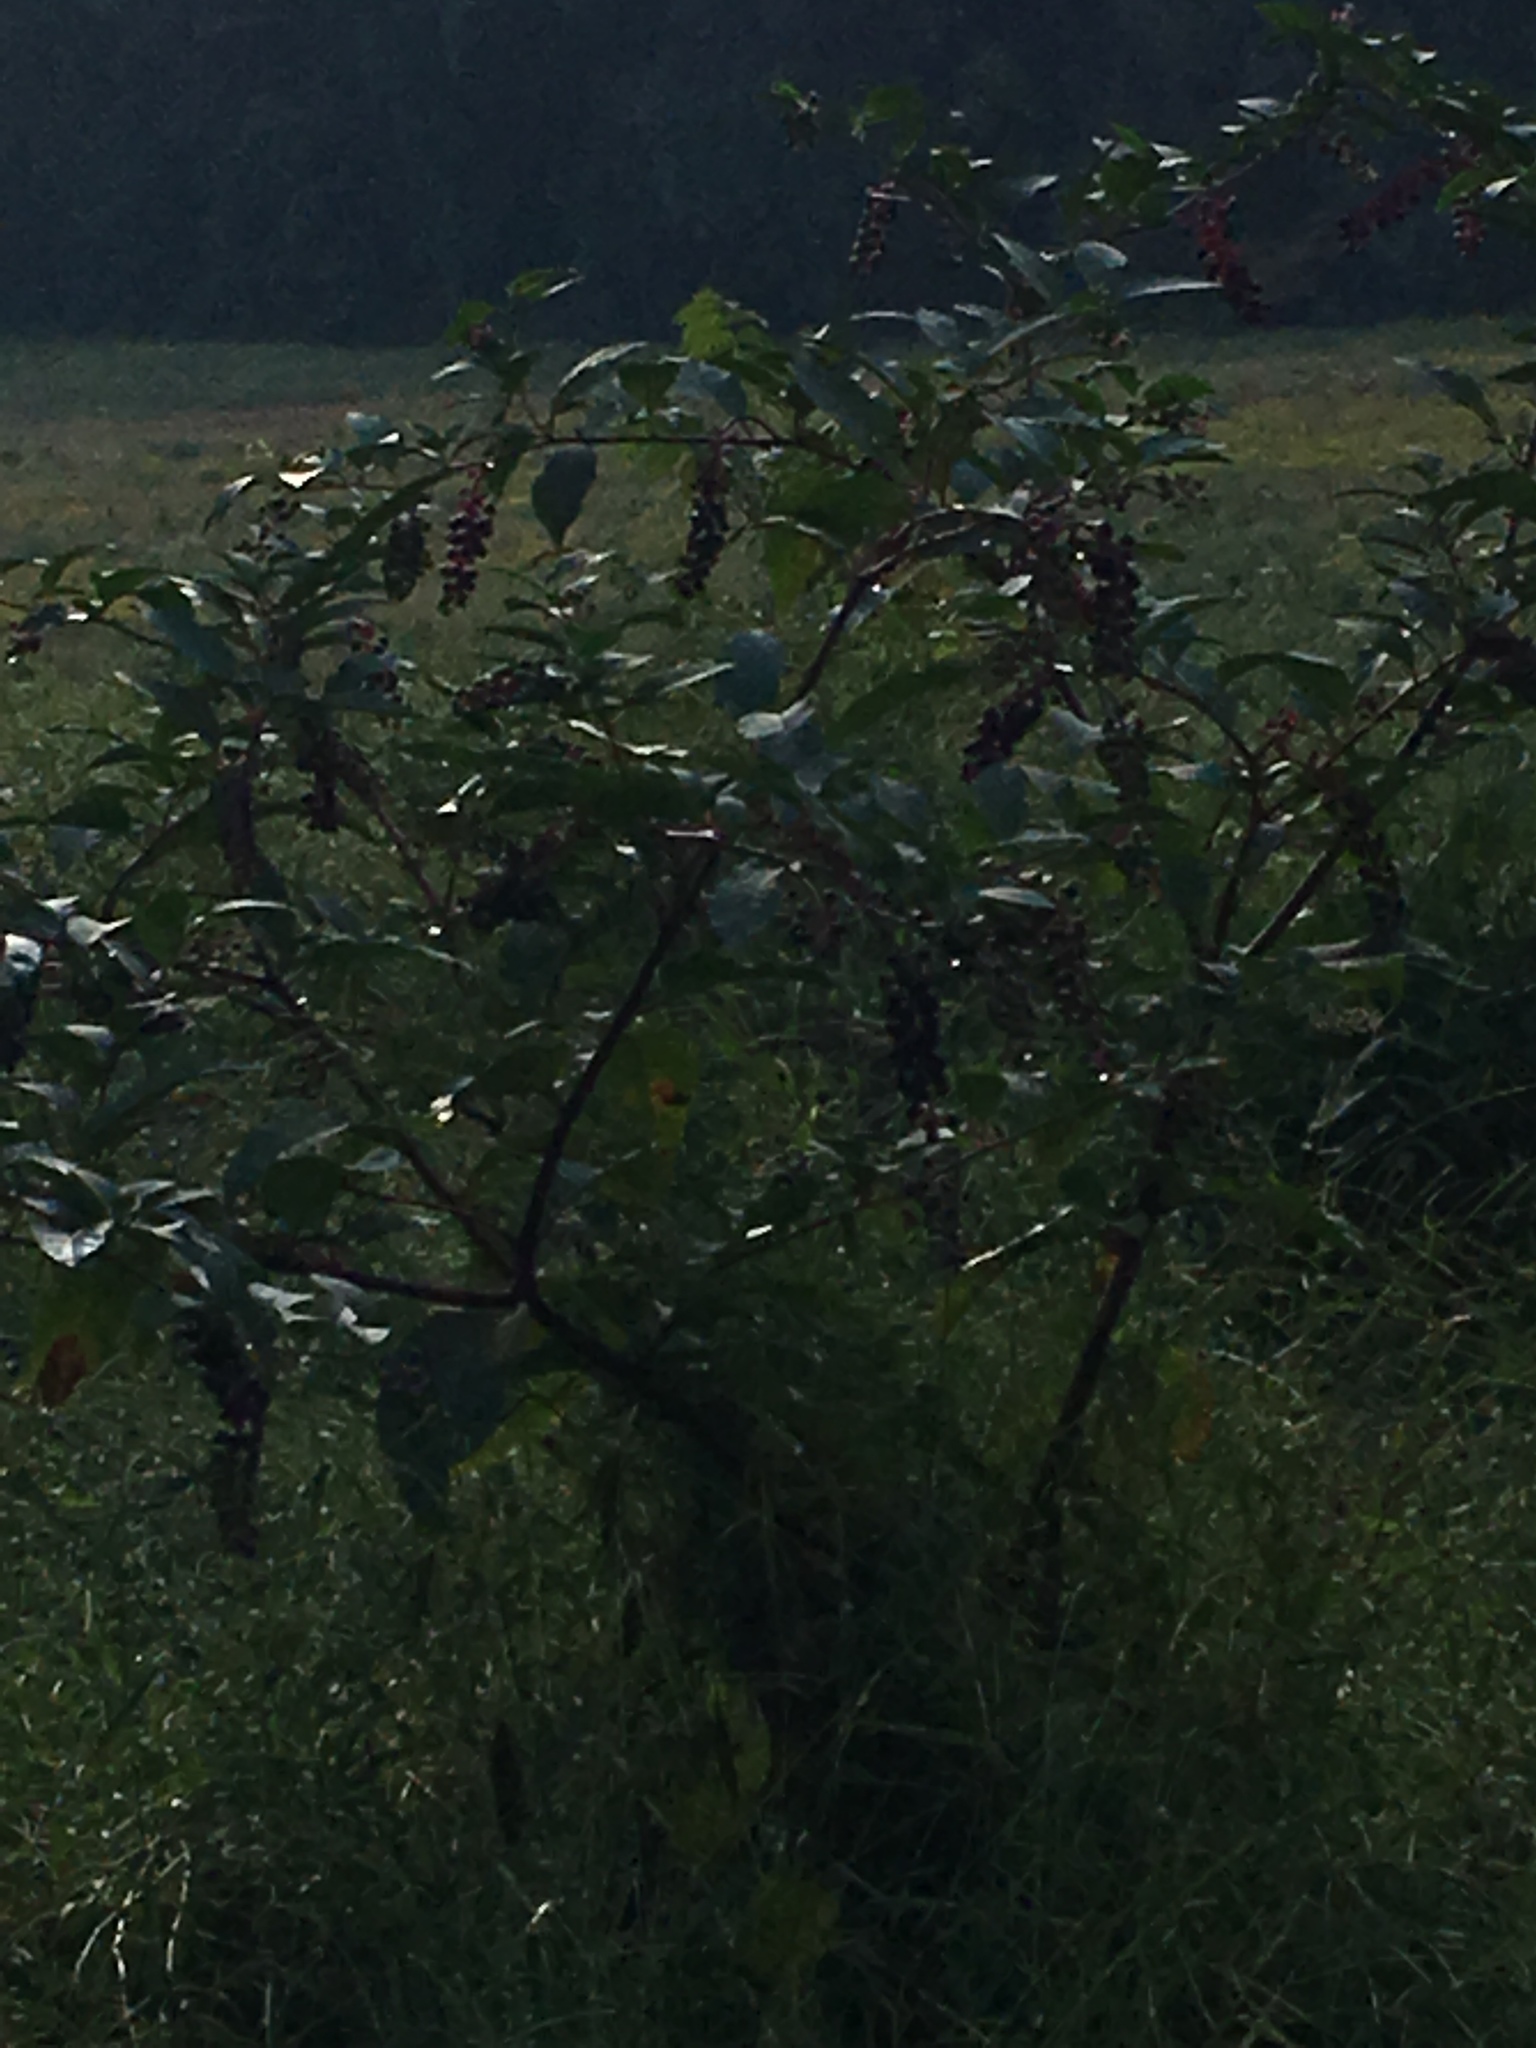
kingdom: Plantae
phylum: Tracheophyta
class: Magnoliopsida
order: Caryophyllales
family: Phytolaccaceae
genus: Phytolacca
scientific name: Phytolacca americana
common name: American pokeweed
